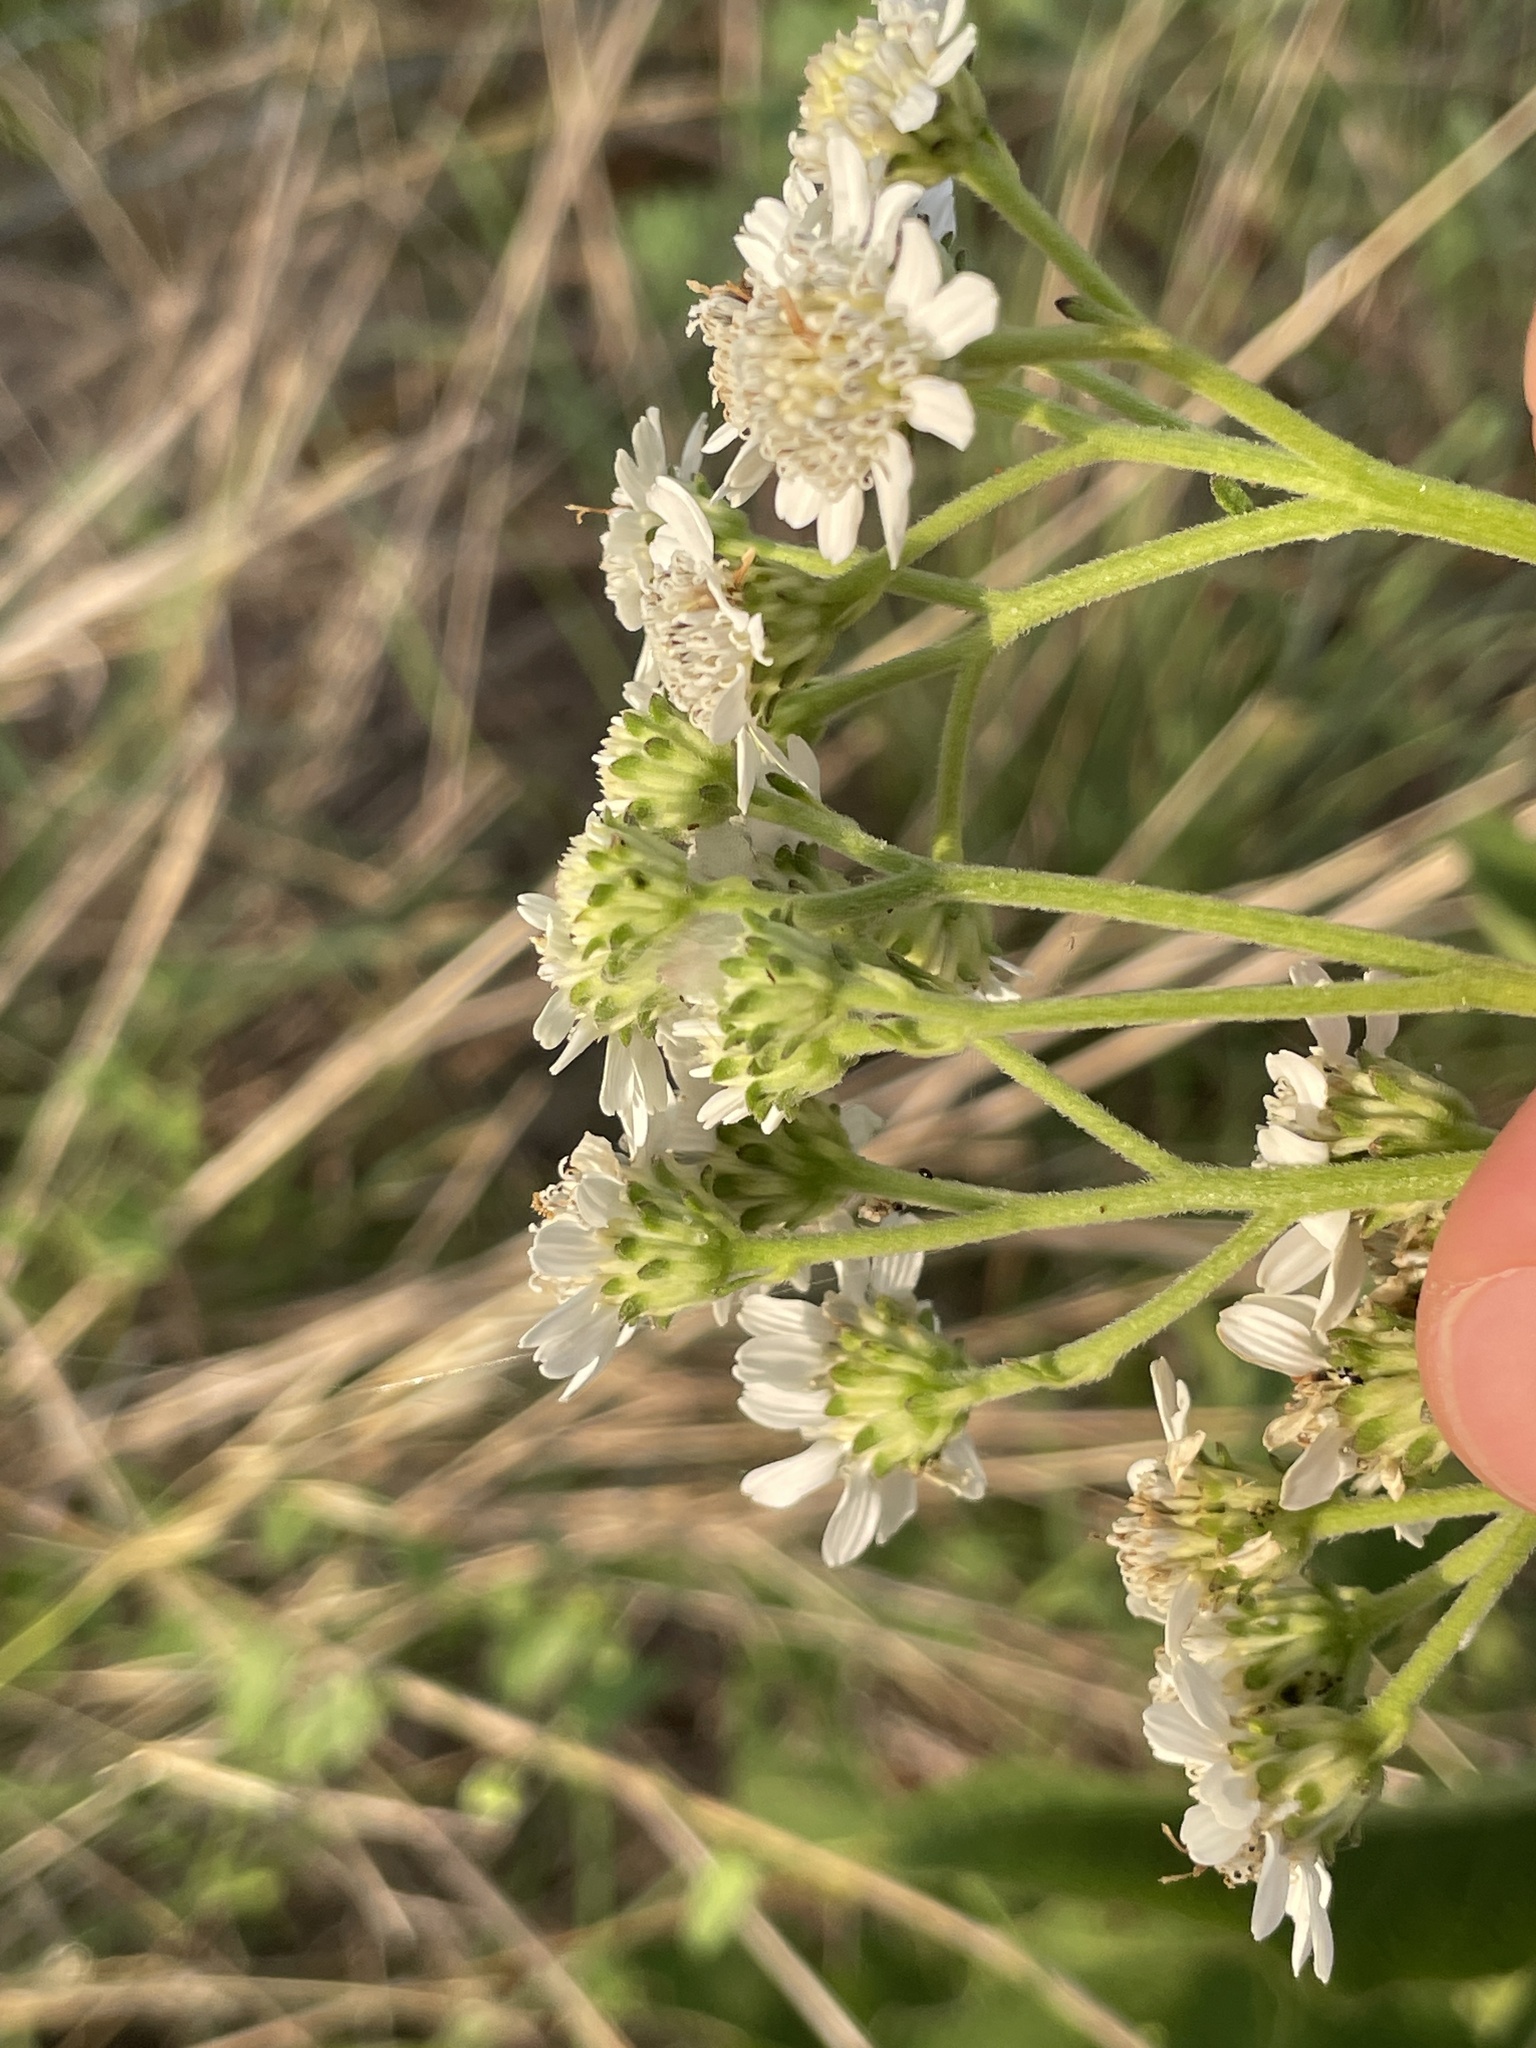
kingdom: Plantae
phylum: Tracheophyta
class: Magnoliopsida
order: Asterales
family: Asteraceae
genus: Verbesina
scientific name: Verbesina microptera
